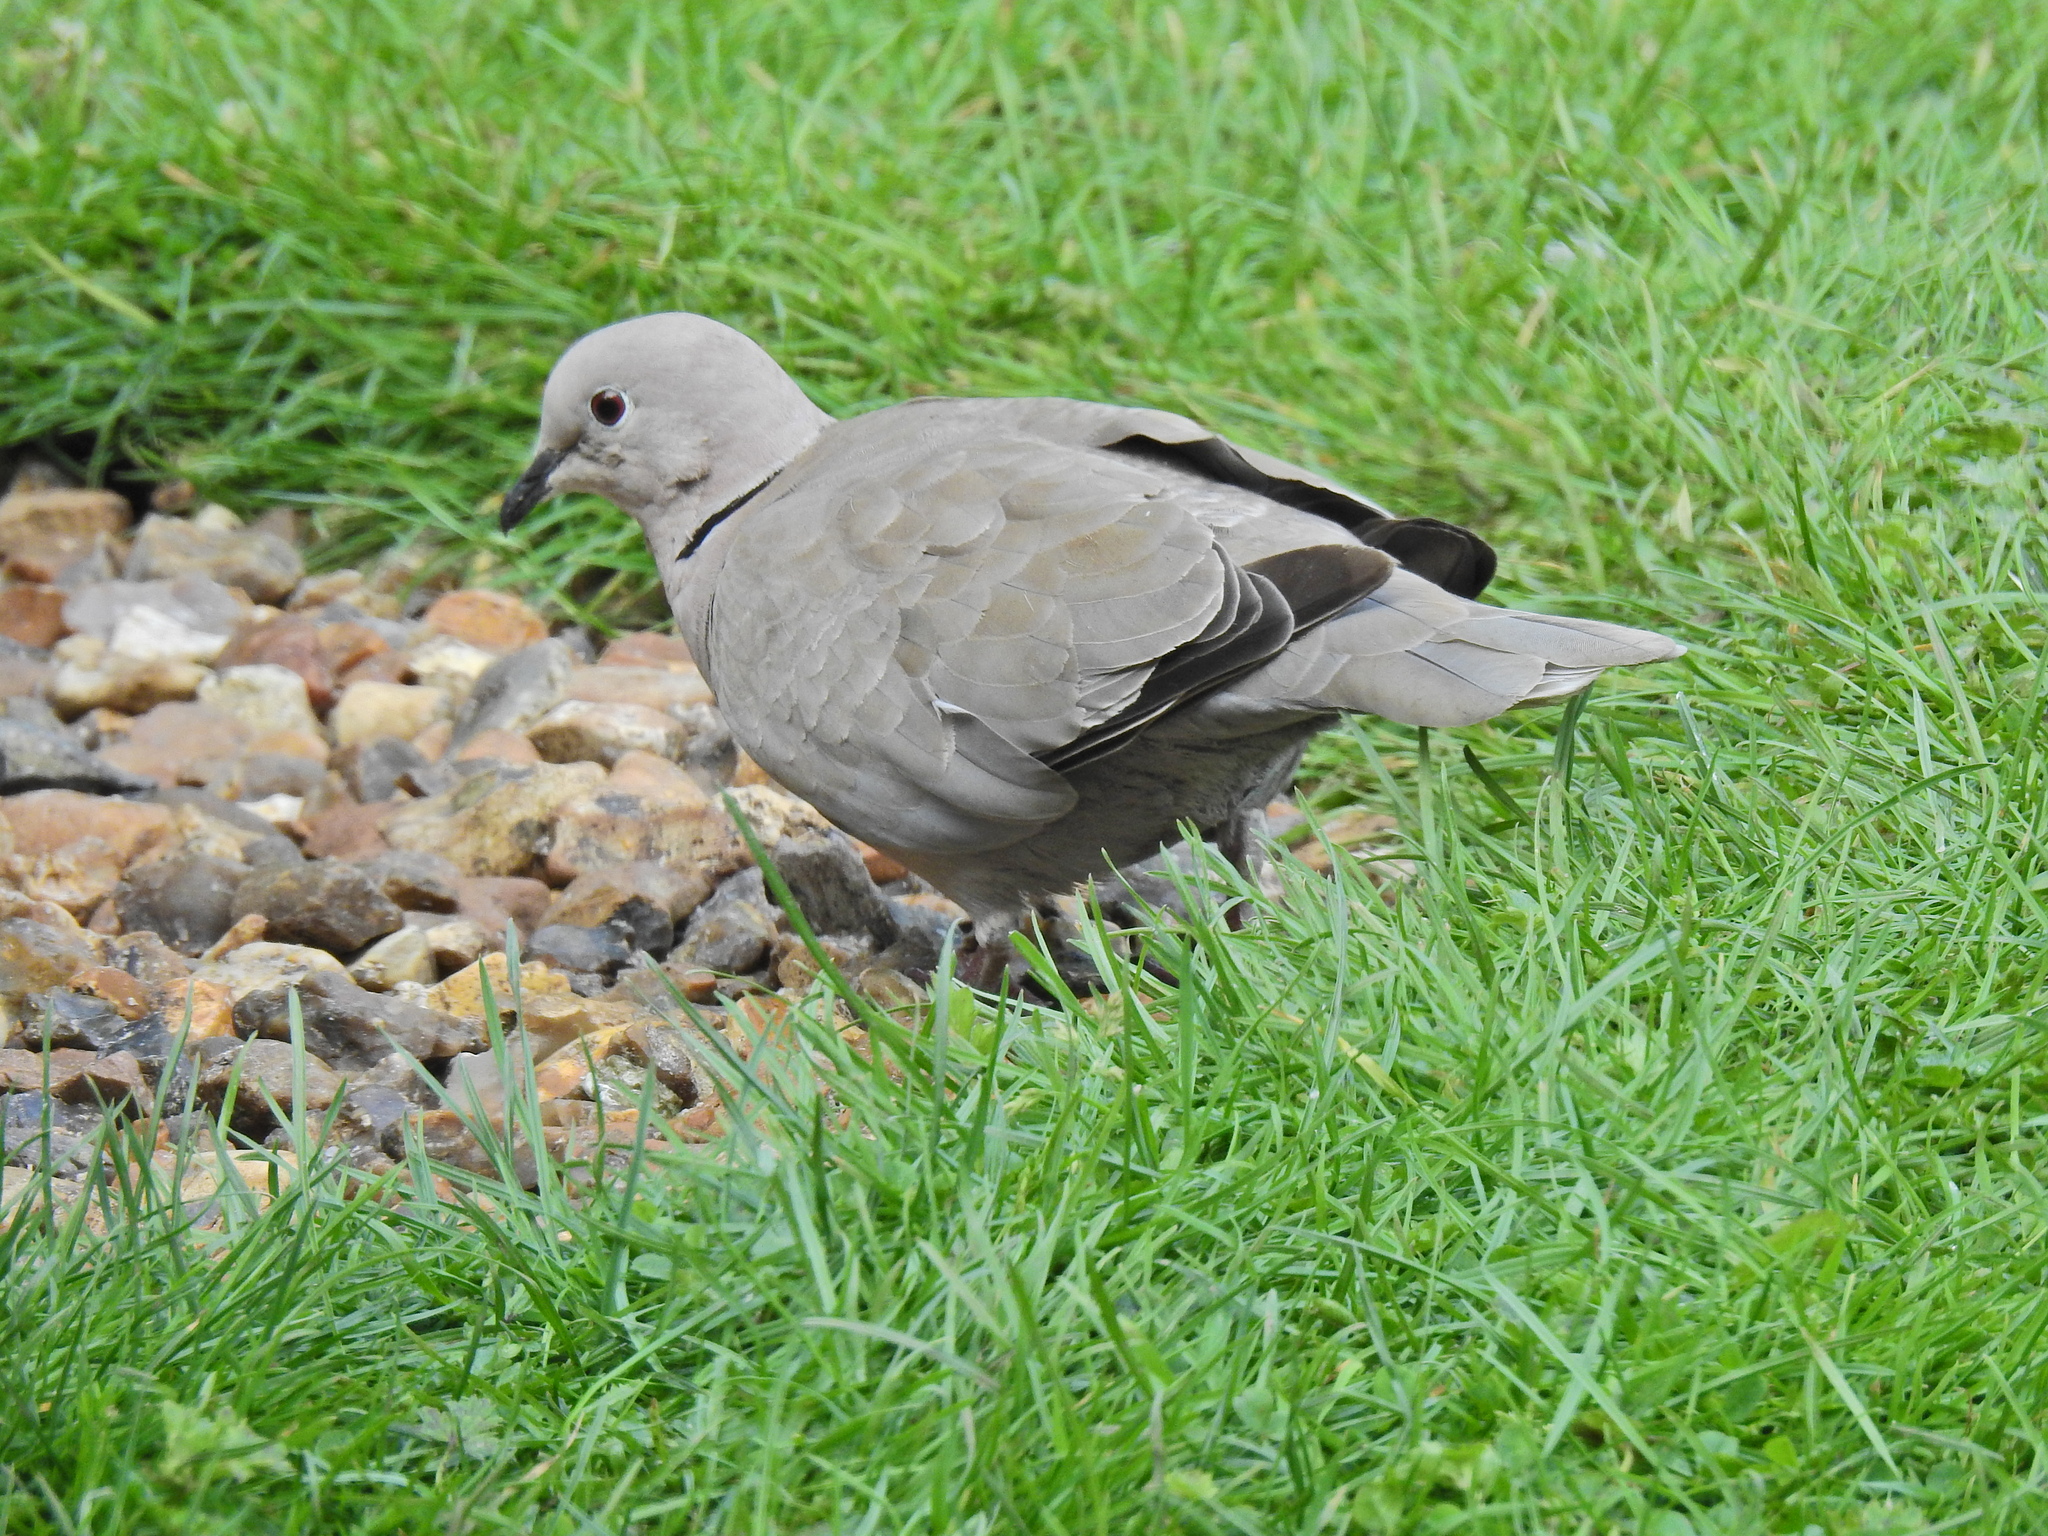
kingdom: Animalia
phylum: Chordata
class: Aves
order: Columbiformes
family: Columbidae
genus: Streptopelia
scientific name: Streptopelia decaocto
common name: Eurasian collared dove
